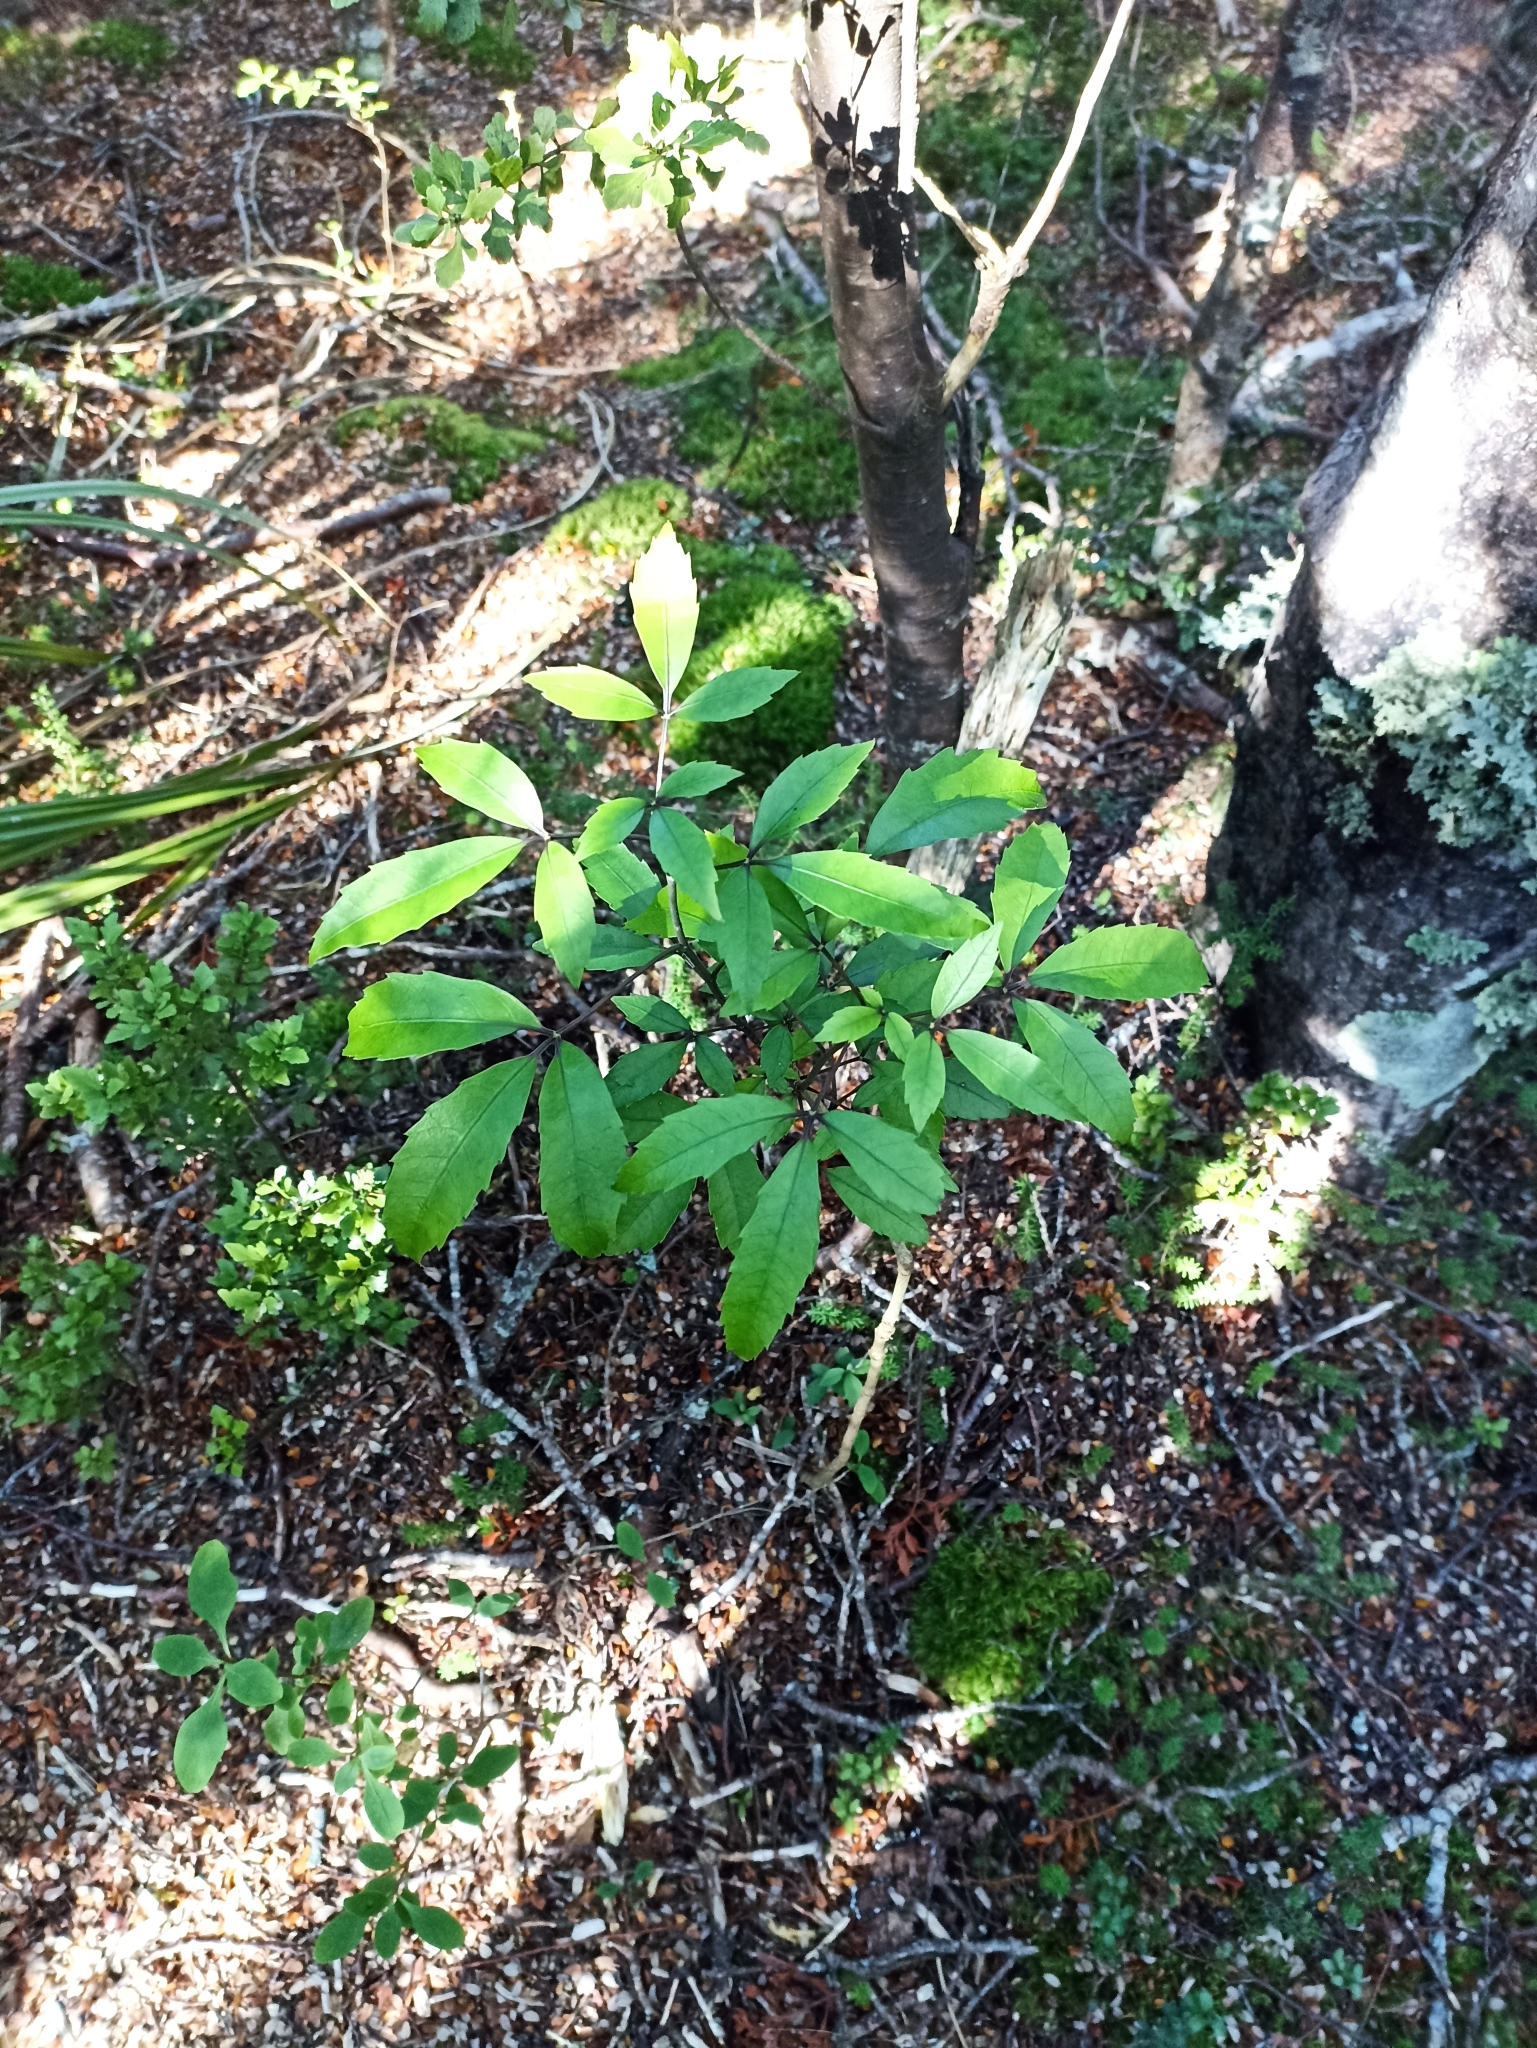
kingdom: Plantae
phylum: Tracheophyta
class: Magnoliopsida
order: Apiales
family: Araliaceae
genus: Raukaua
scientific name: Raukaua simplex
